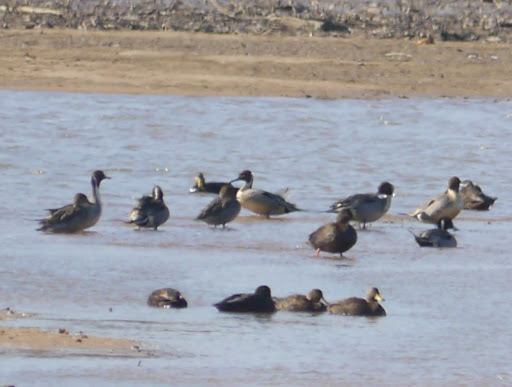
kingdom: Animalia
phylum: Chordata
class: Aves
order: Anseriformes
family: Anatidae
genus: Anas
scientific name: Anas acuta
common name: Northern pintail
